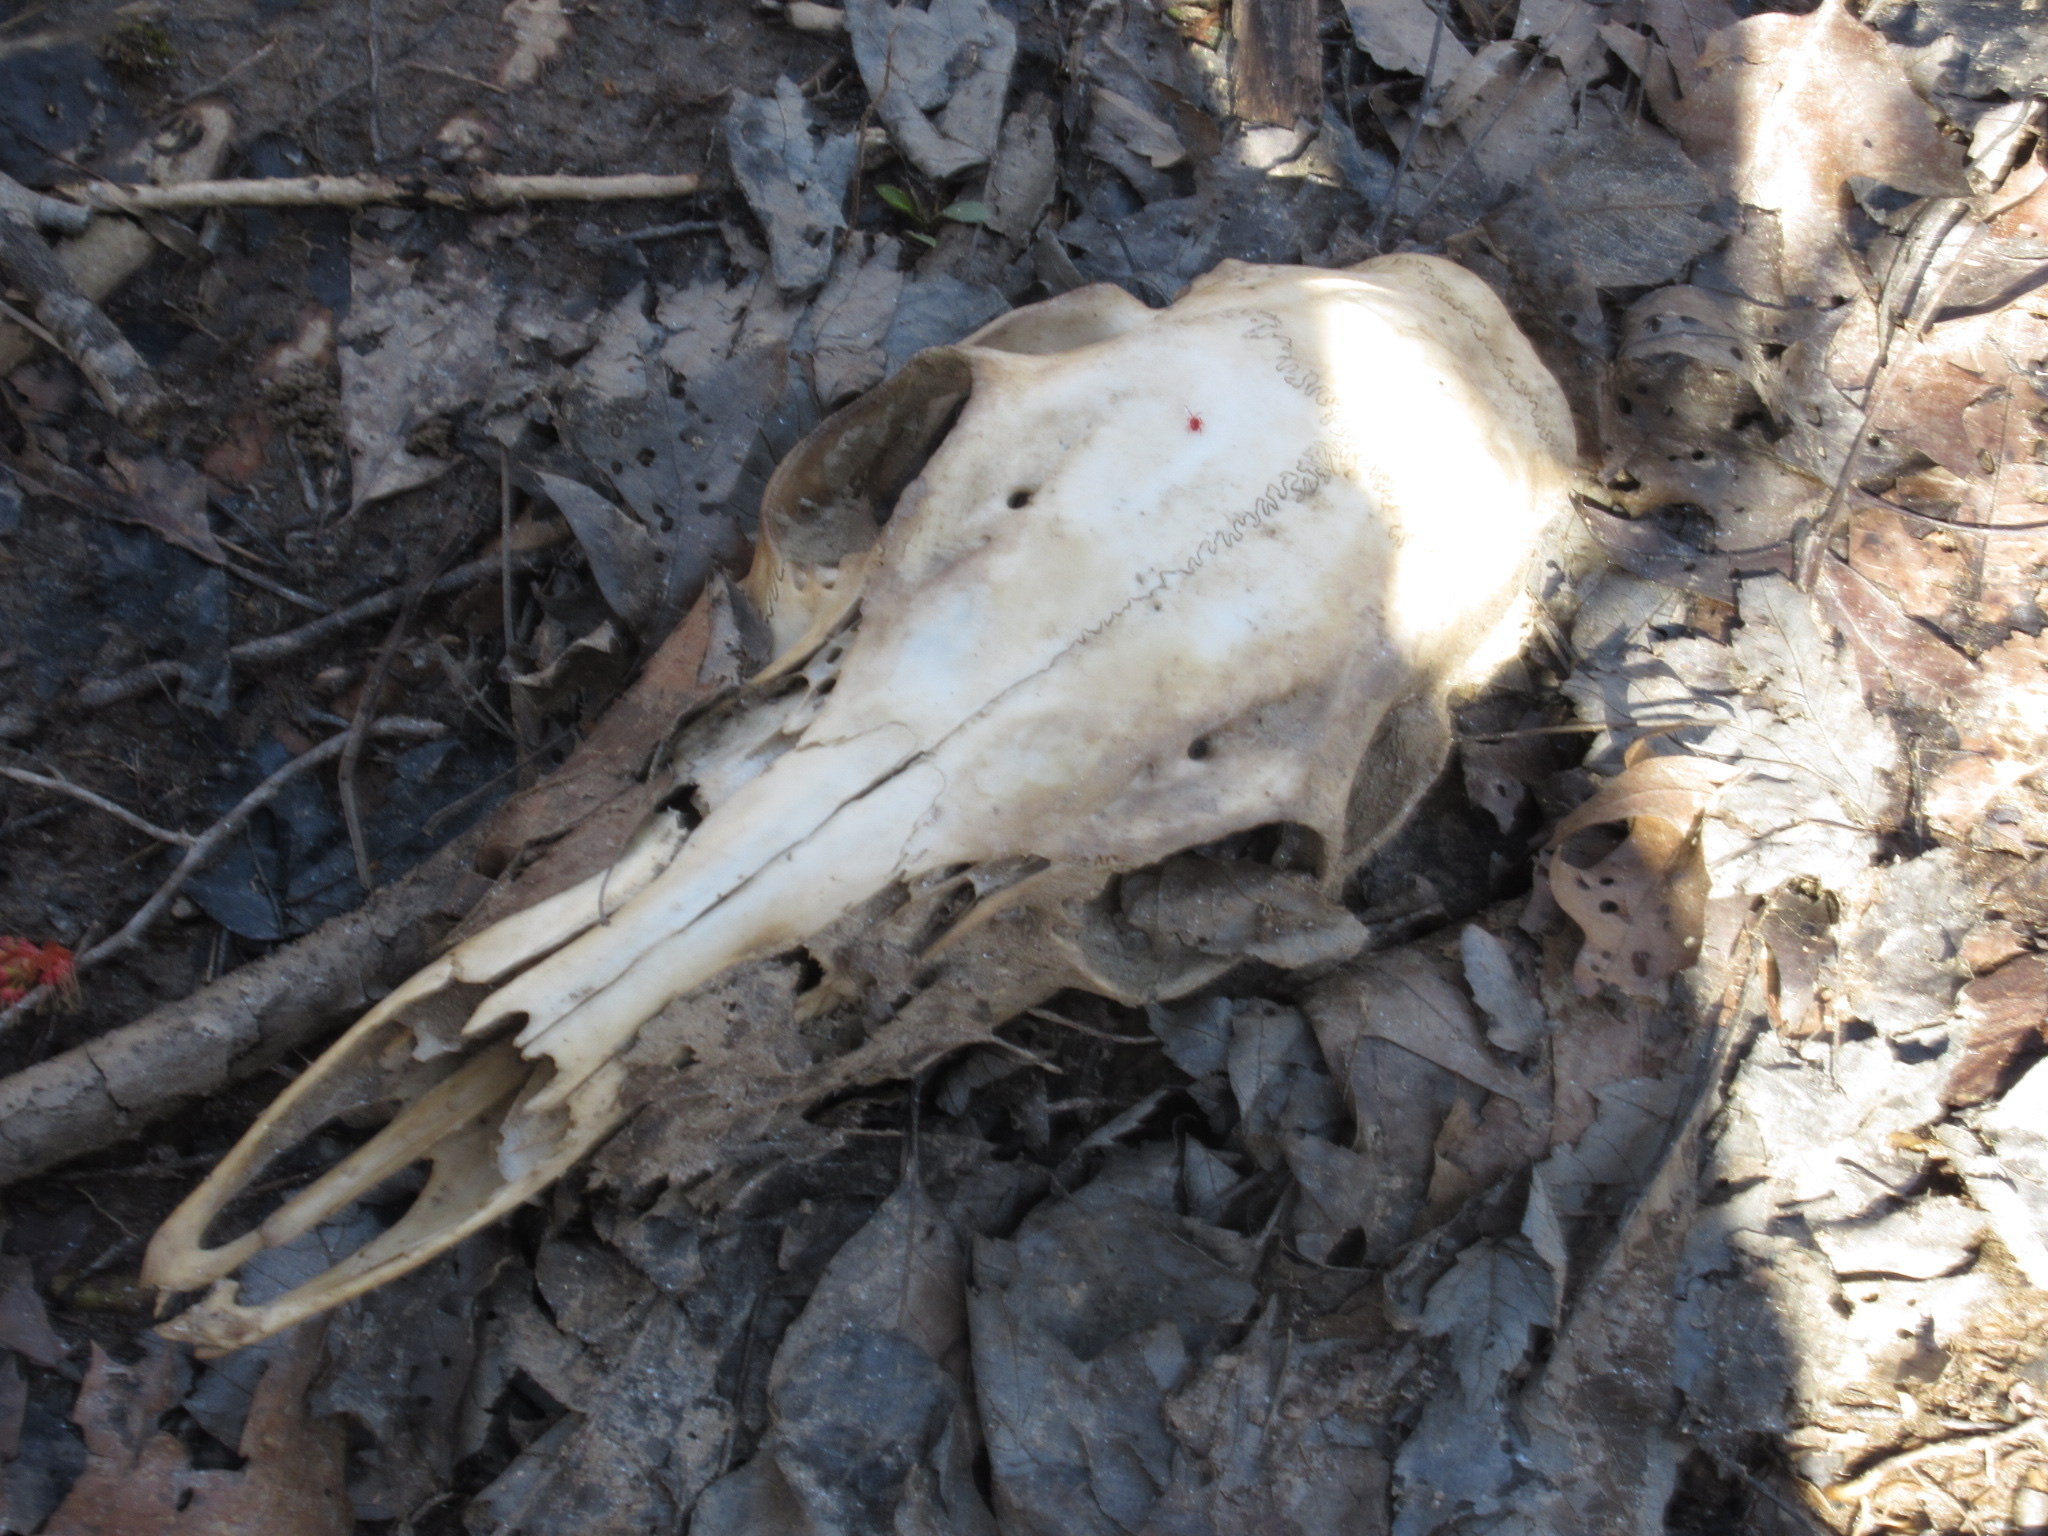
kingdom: Animalia
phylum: Chordata
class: Mammalia
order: Artiodactyla
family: Cervidae
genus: Odocoileus
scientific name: Odocoileus virginianus
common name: White-tailed deer
